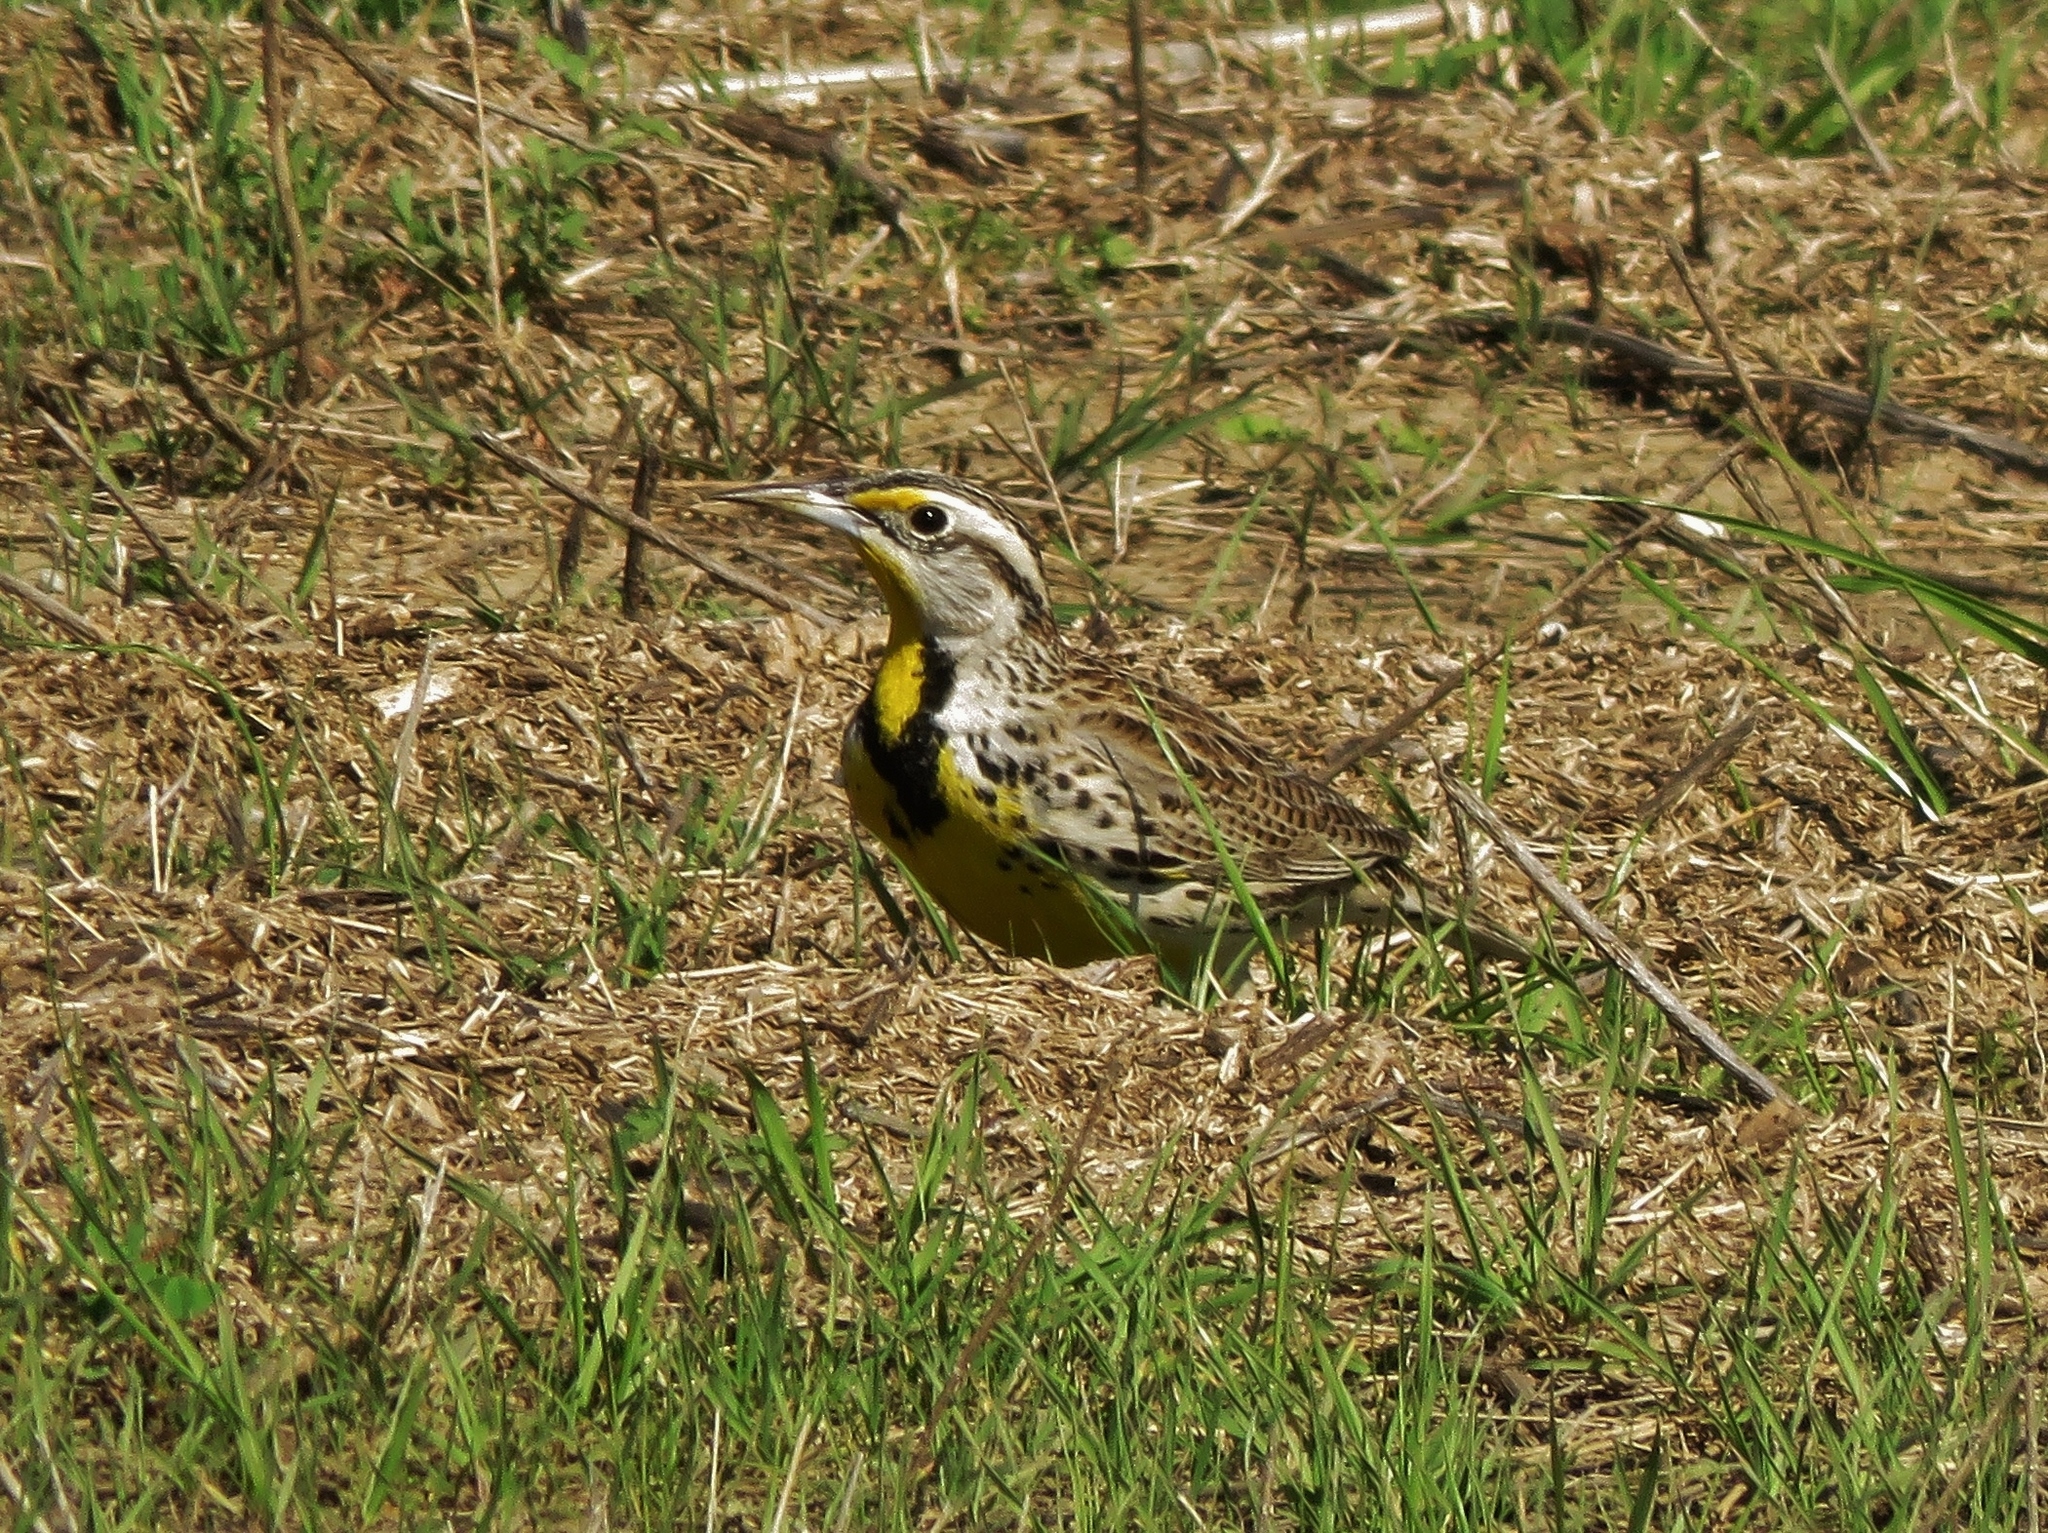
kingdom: Animalia
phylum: Chordata
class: Aves
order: Passeriformes
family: Icteridae
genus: Sturnella
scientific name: Sturnella neglecta
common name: Western meadowlark
